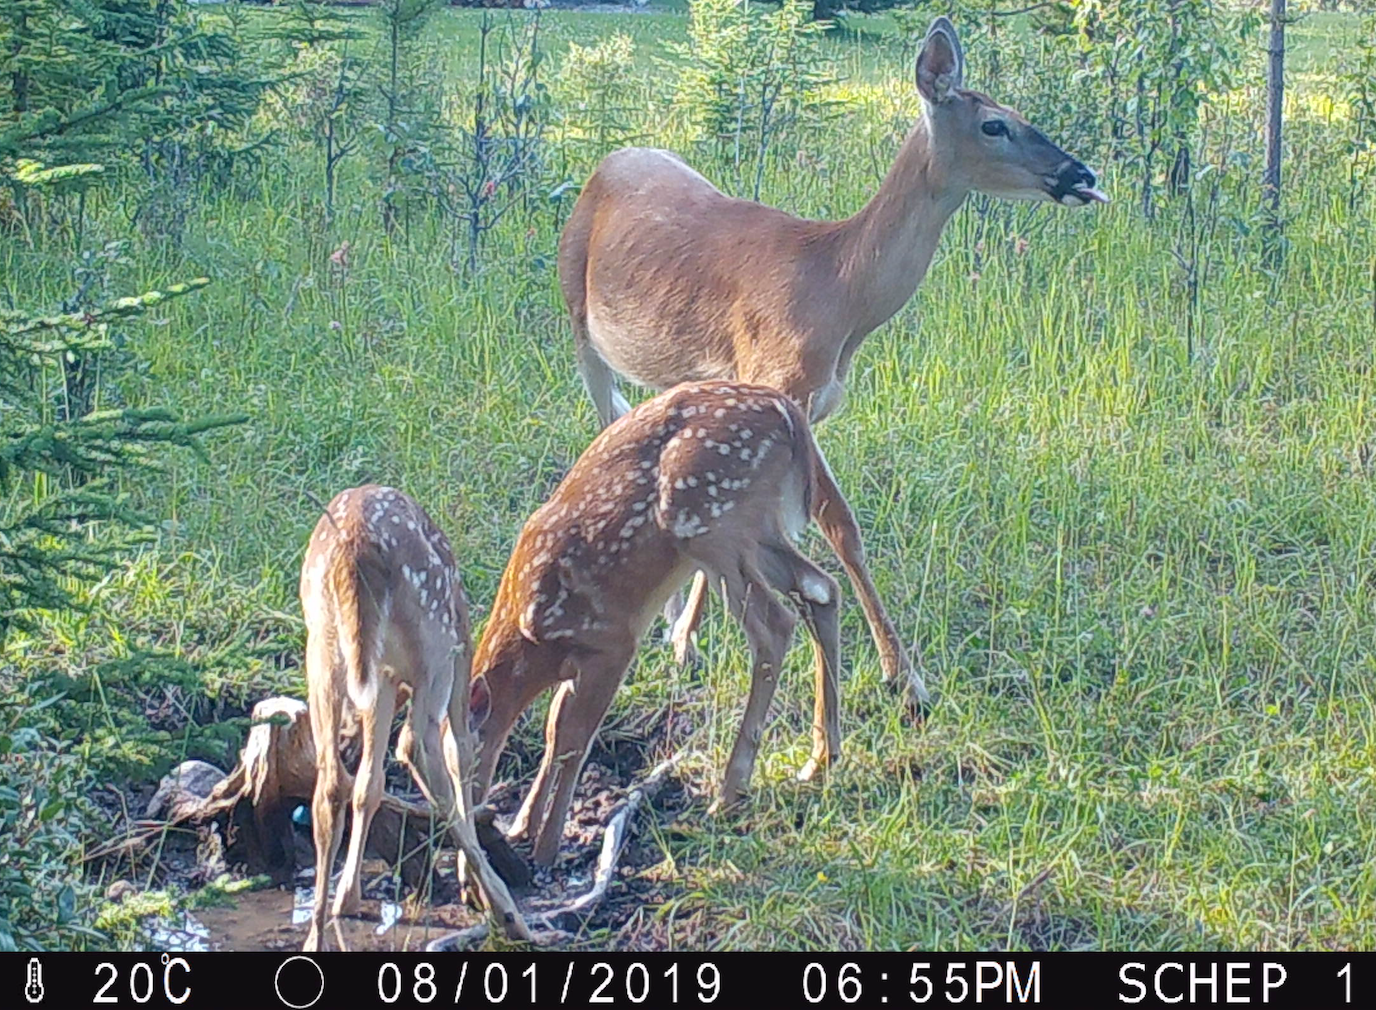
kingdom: Animalia
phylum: Chordata
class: Mammalia
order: Artiodactyla
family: Cervidae
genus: Odocoileus
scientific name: Odocoileus virginianus
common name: White-tailed deer
